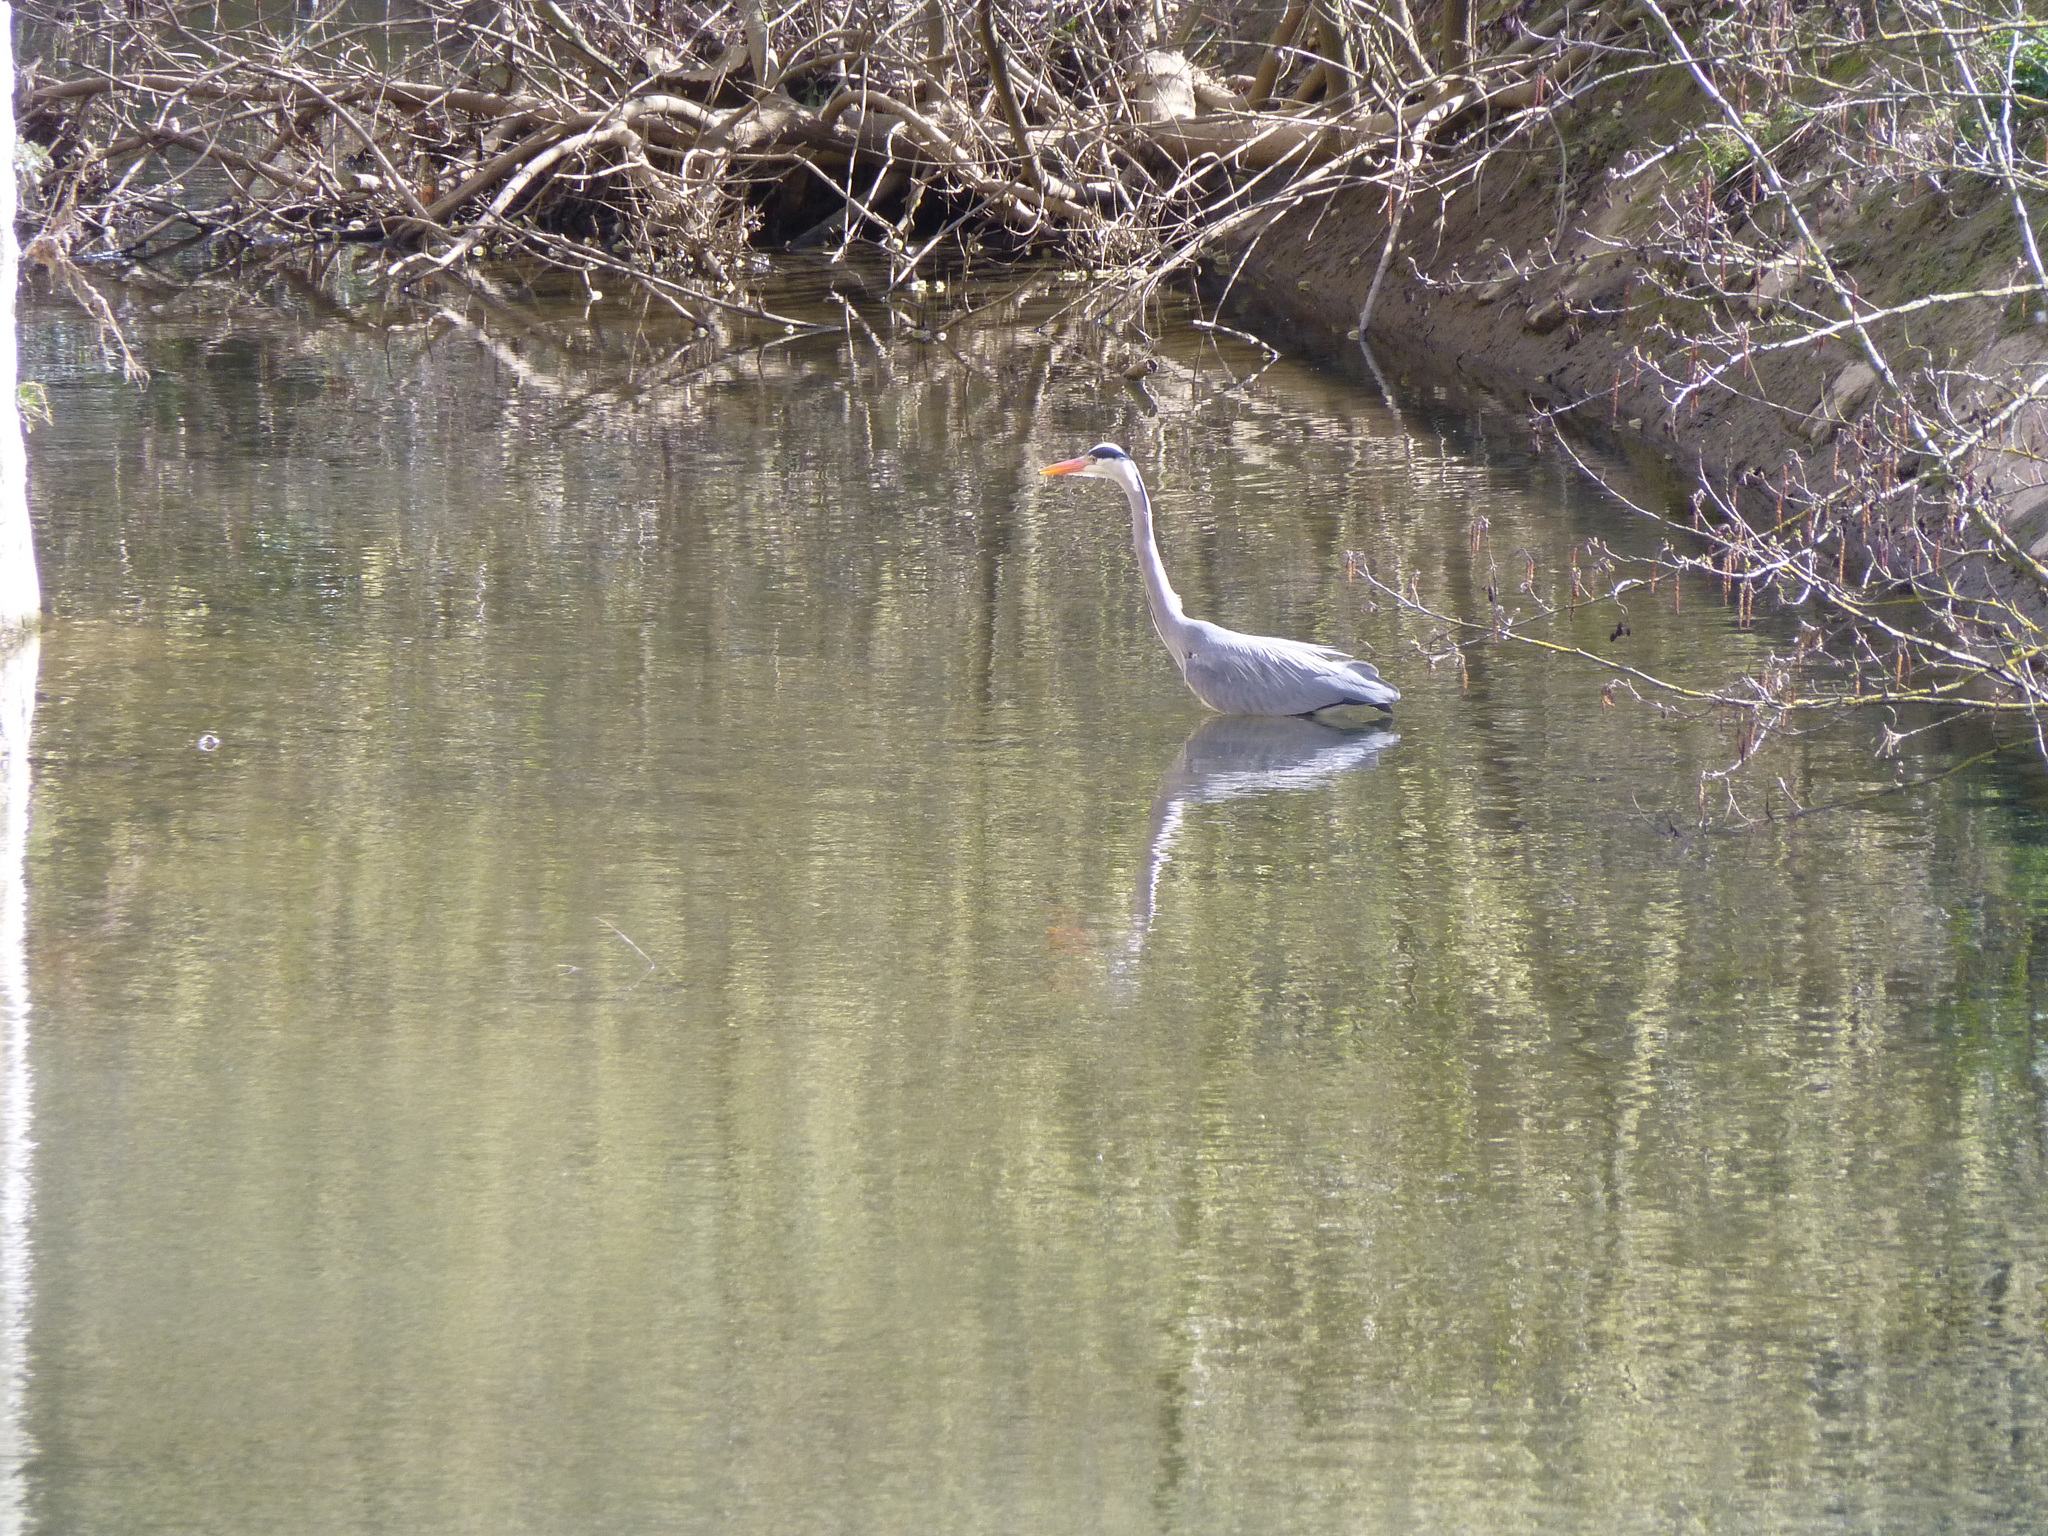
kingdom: Animalia
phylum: Chordata
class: Aves
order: Pelecaniformes
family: Ardeidae
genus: Ardea
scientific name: Ardea cinerea
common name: Grey heron
